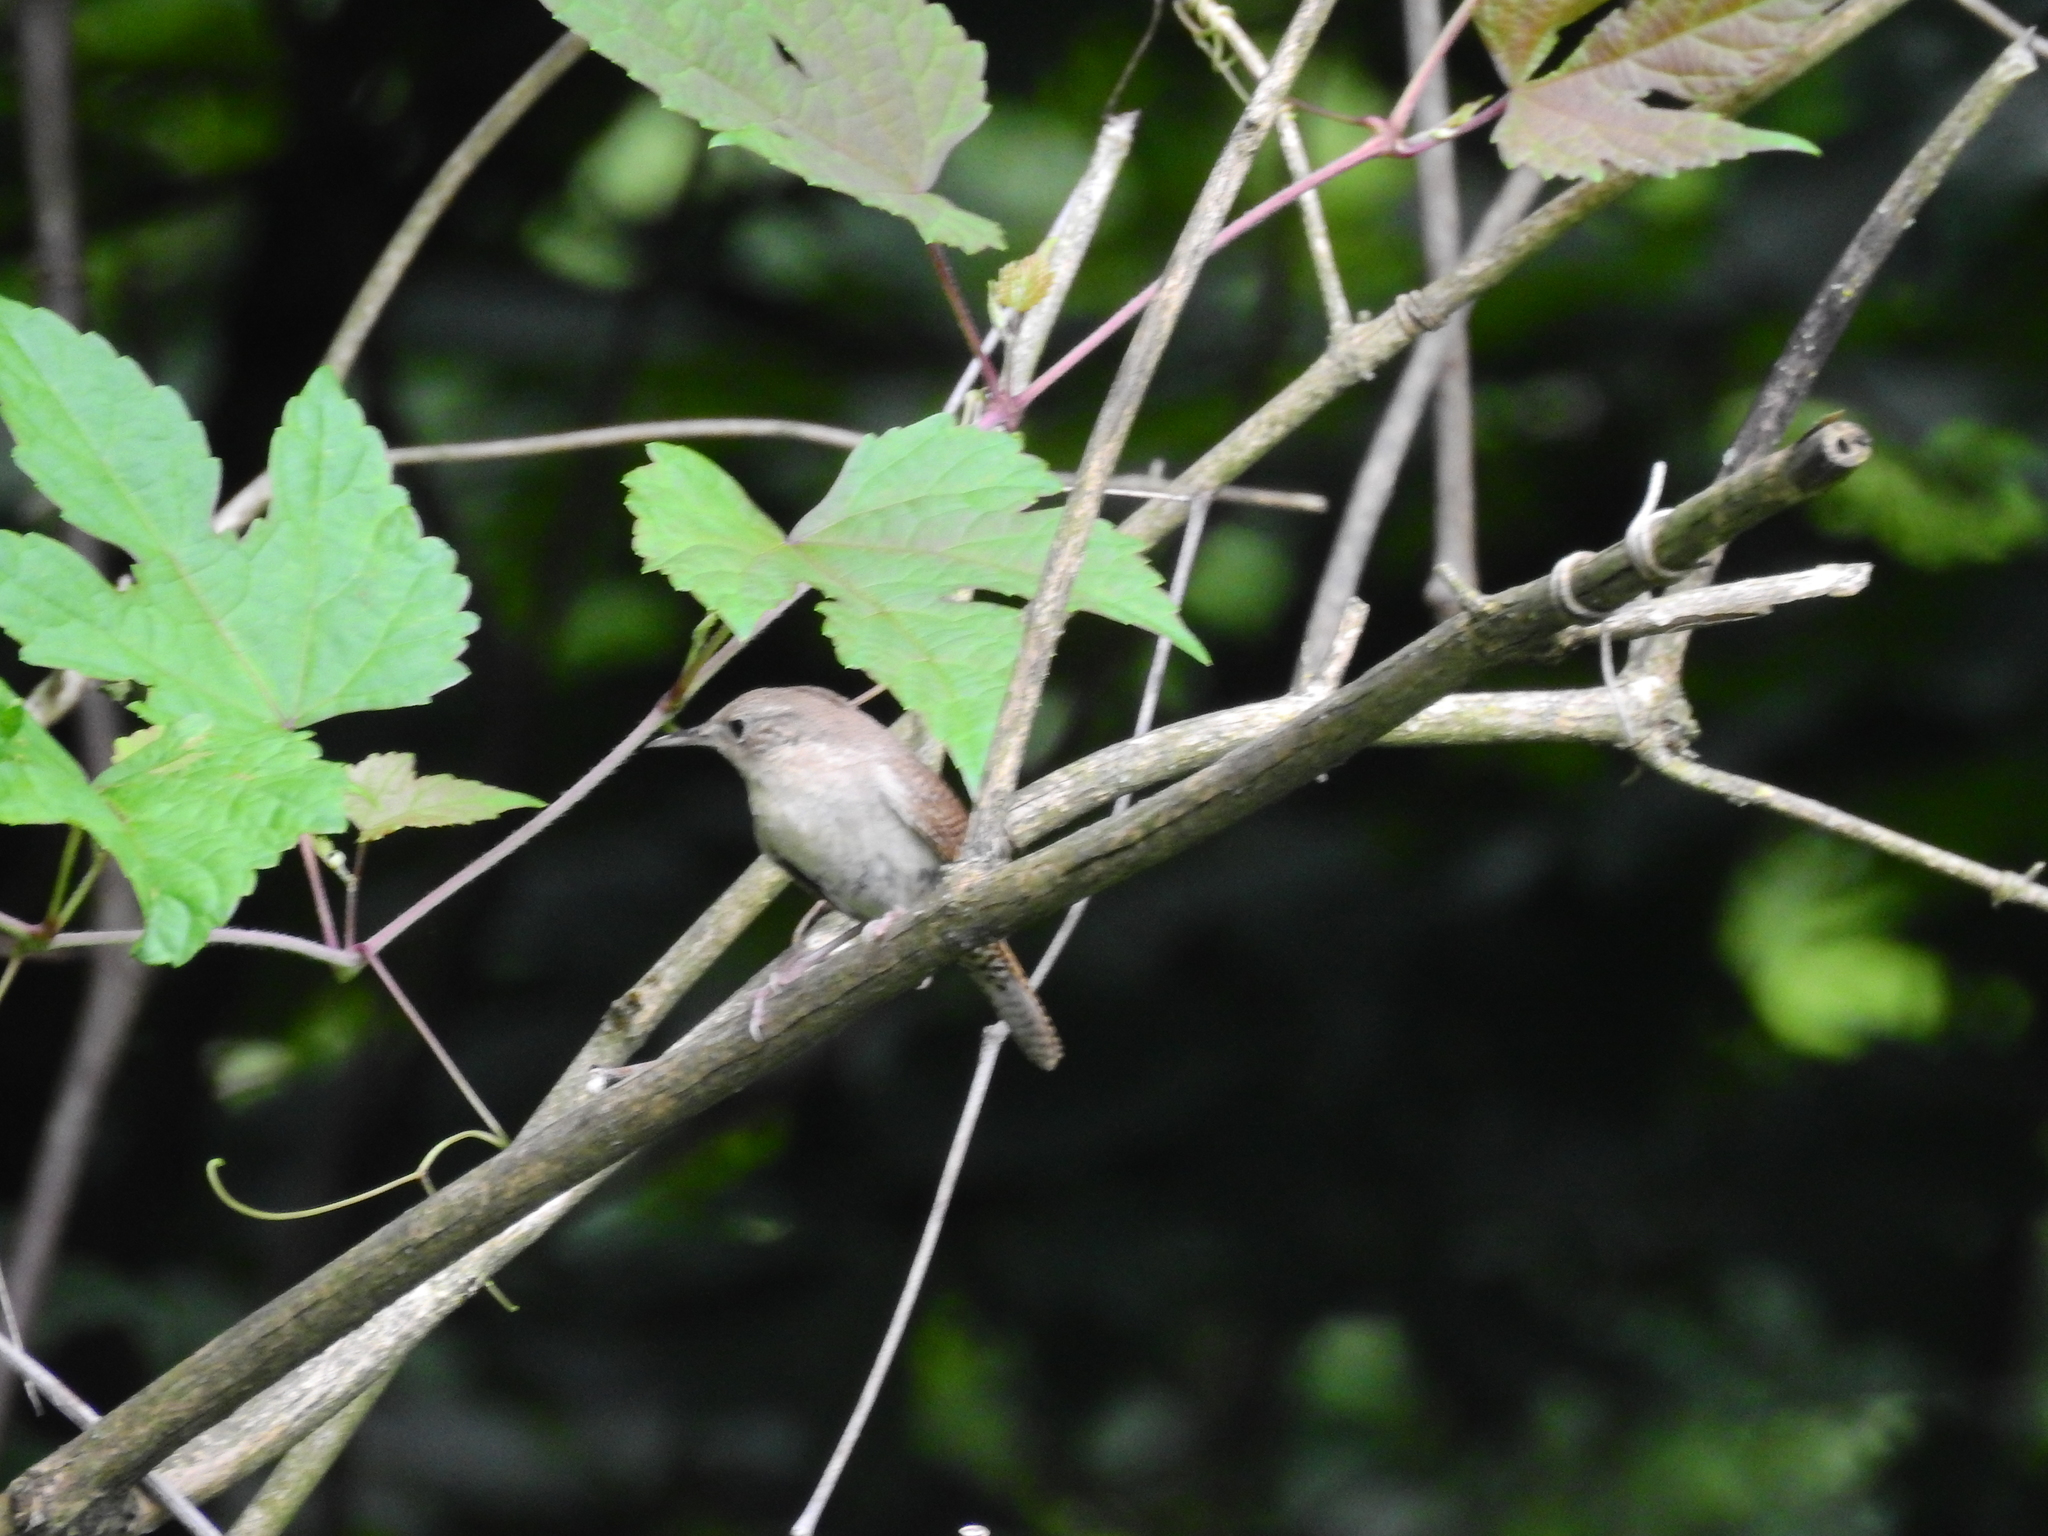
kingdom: Animalia
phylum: Chordata
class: Aves
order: Passeriformes
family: Troglodytidae
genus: Troglodytes
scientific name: Troglodytes aedon
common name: House wren
